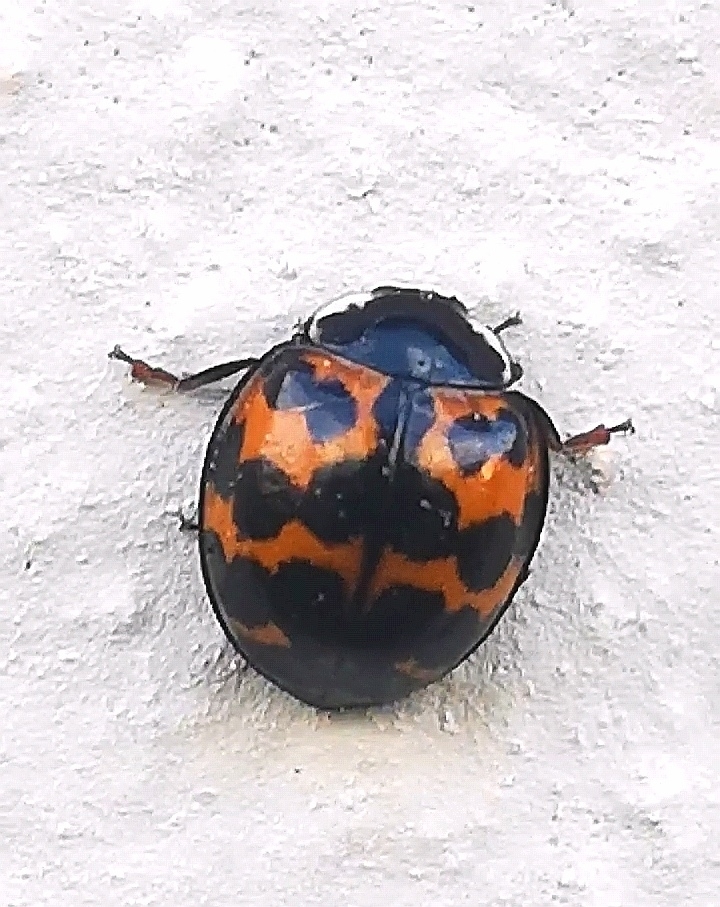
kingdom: Animalia
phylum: Arthropoda
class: Insecta
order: Coleoptera
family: Coccinellidae
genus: Harmonia
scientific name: Harmonia axyridis
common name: Harlequin ladybird
